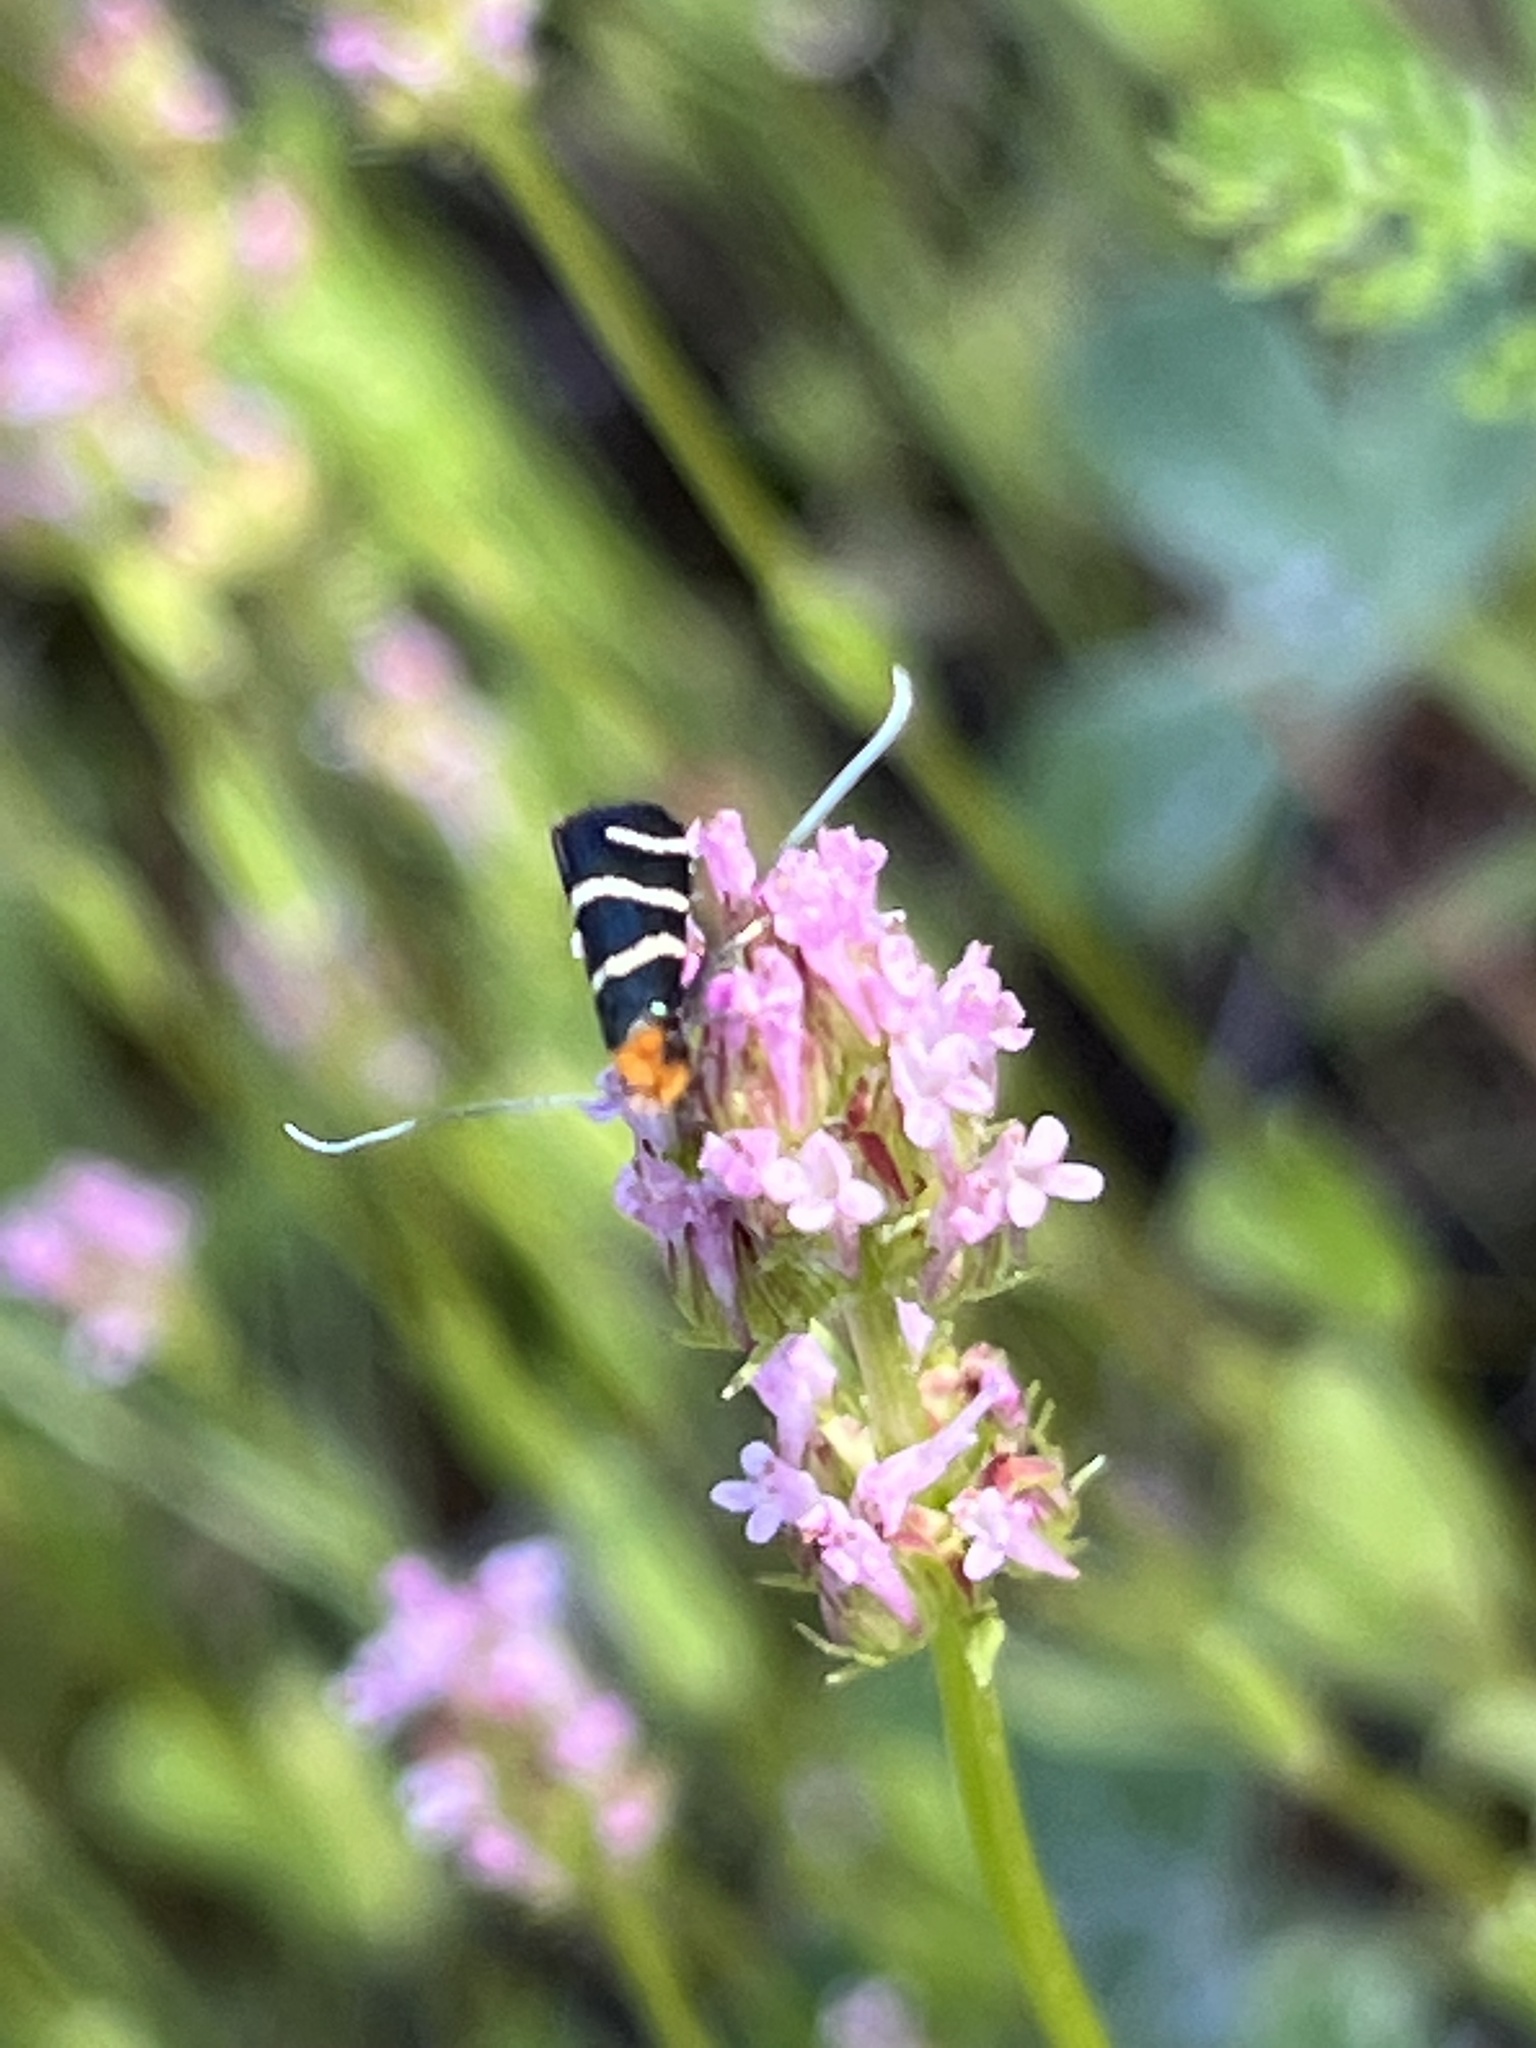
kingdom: Animalia
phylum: Arthropoda
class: Insecta
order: Lepidoptera
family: Adelidae
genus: Adela
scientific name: Adela trigrapha
